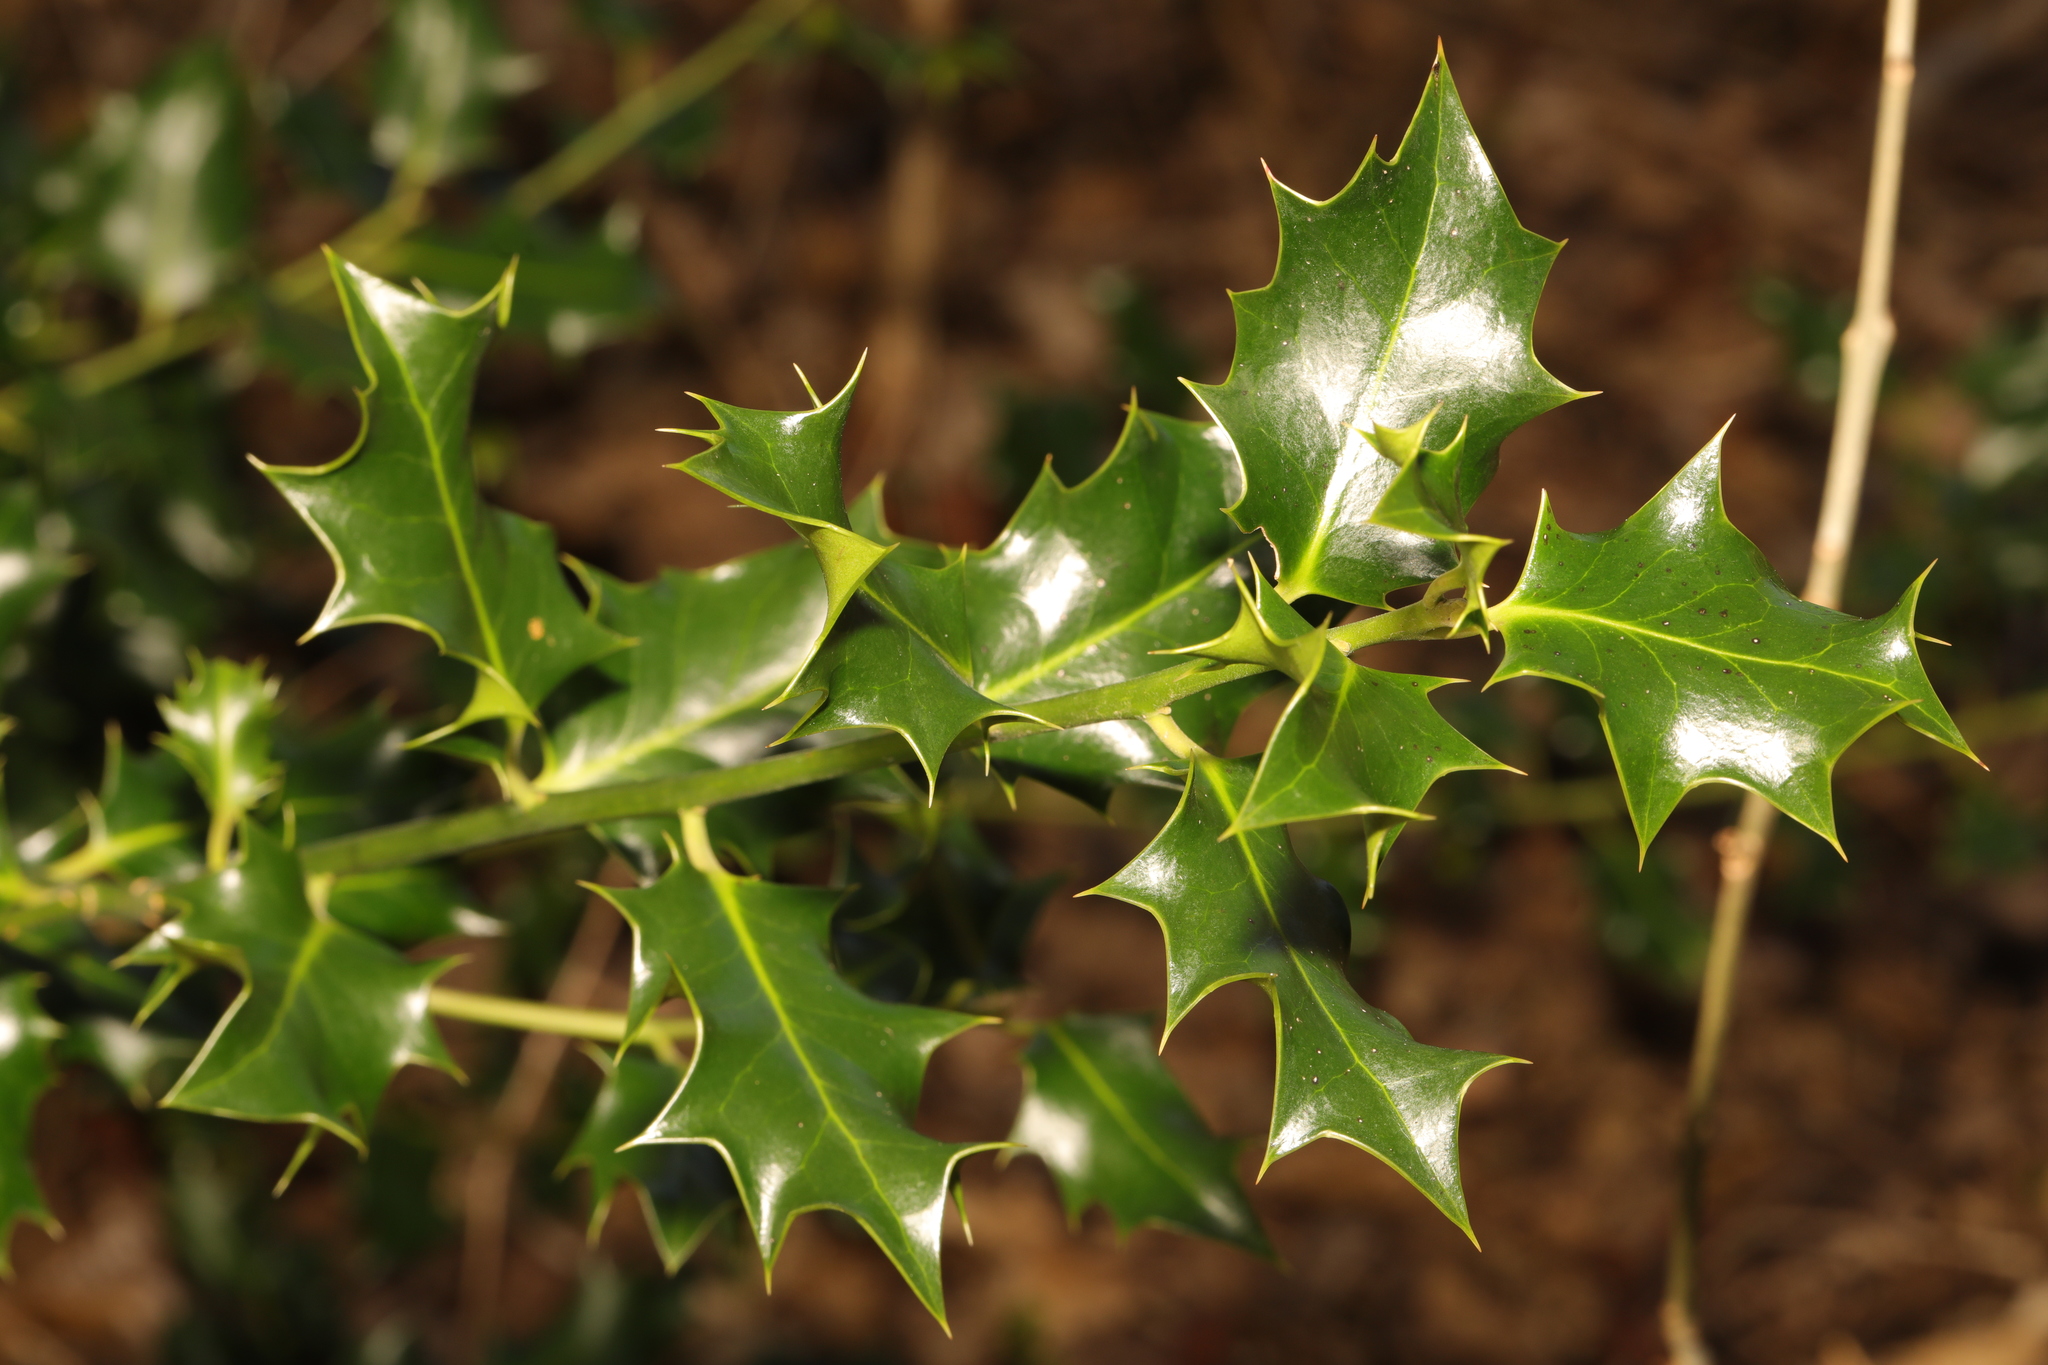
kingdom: Plantae
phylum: Tracheophyta
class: Magnoliopsida
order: Aquifoliales
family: Aquifoliaceae
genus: Ilex
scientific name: Ilex aquifolium
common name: English holly
